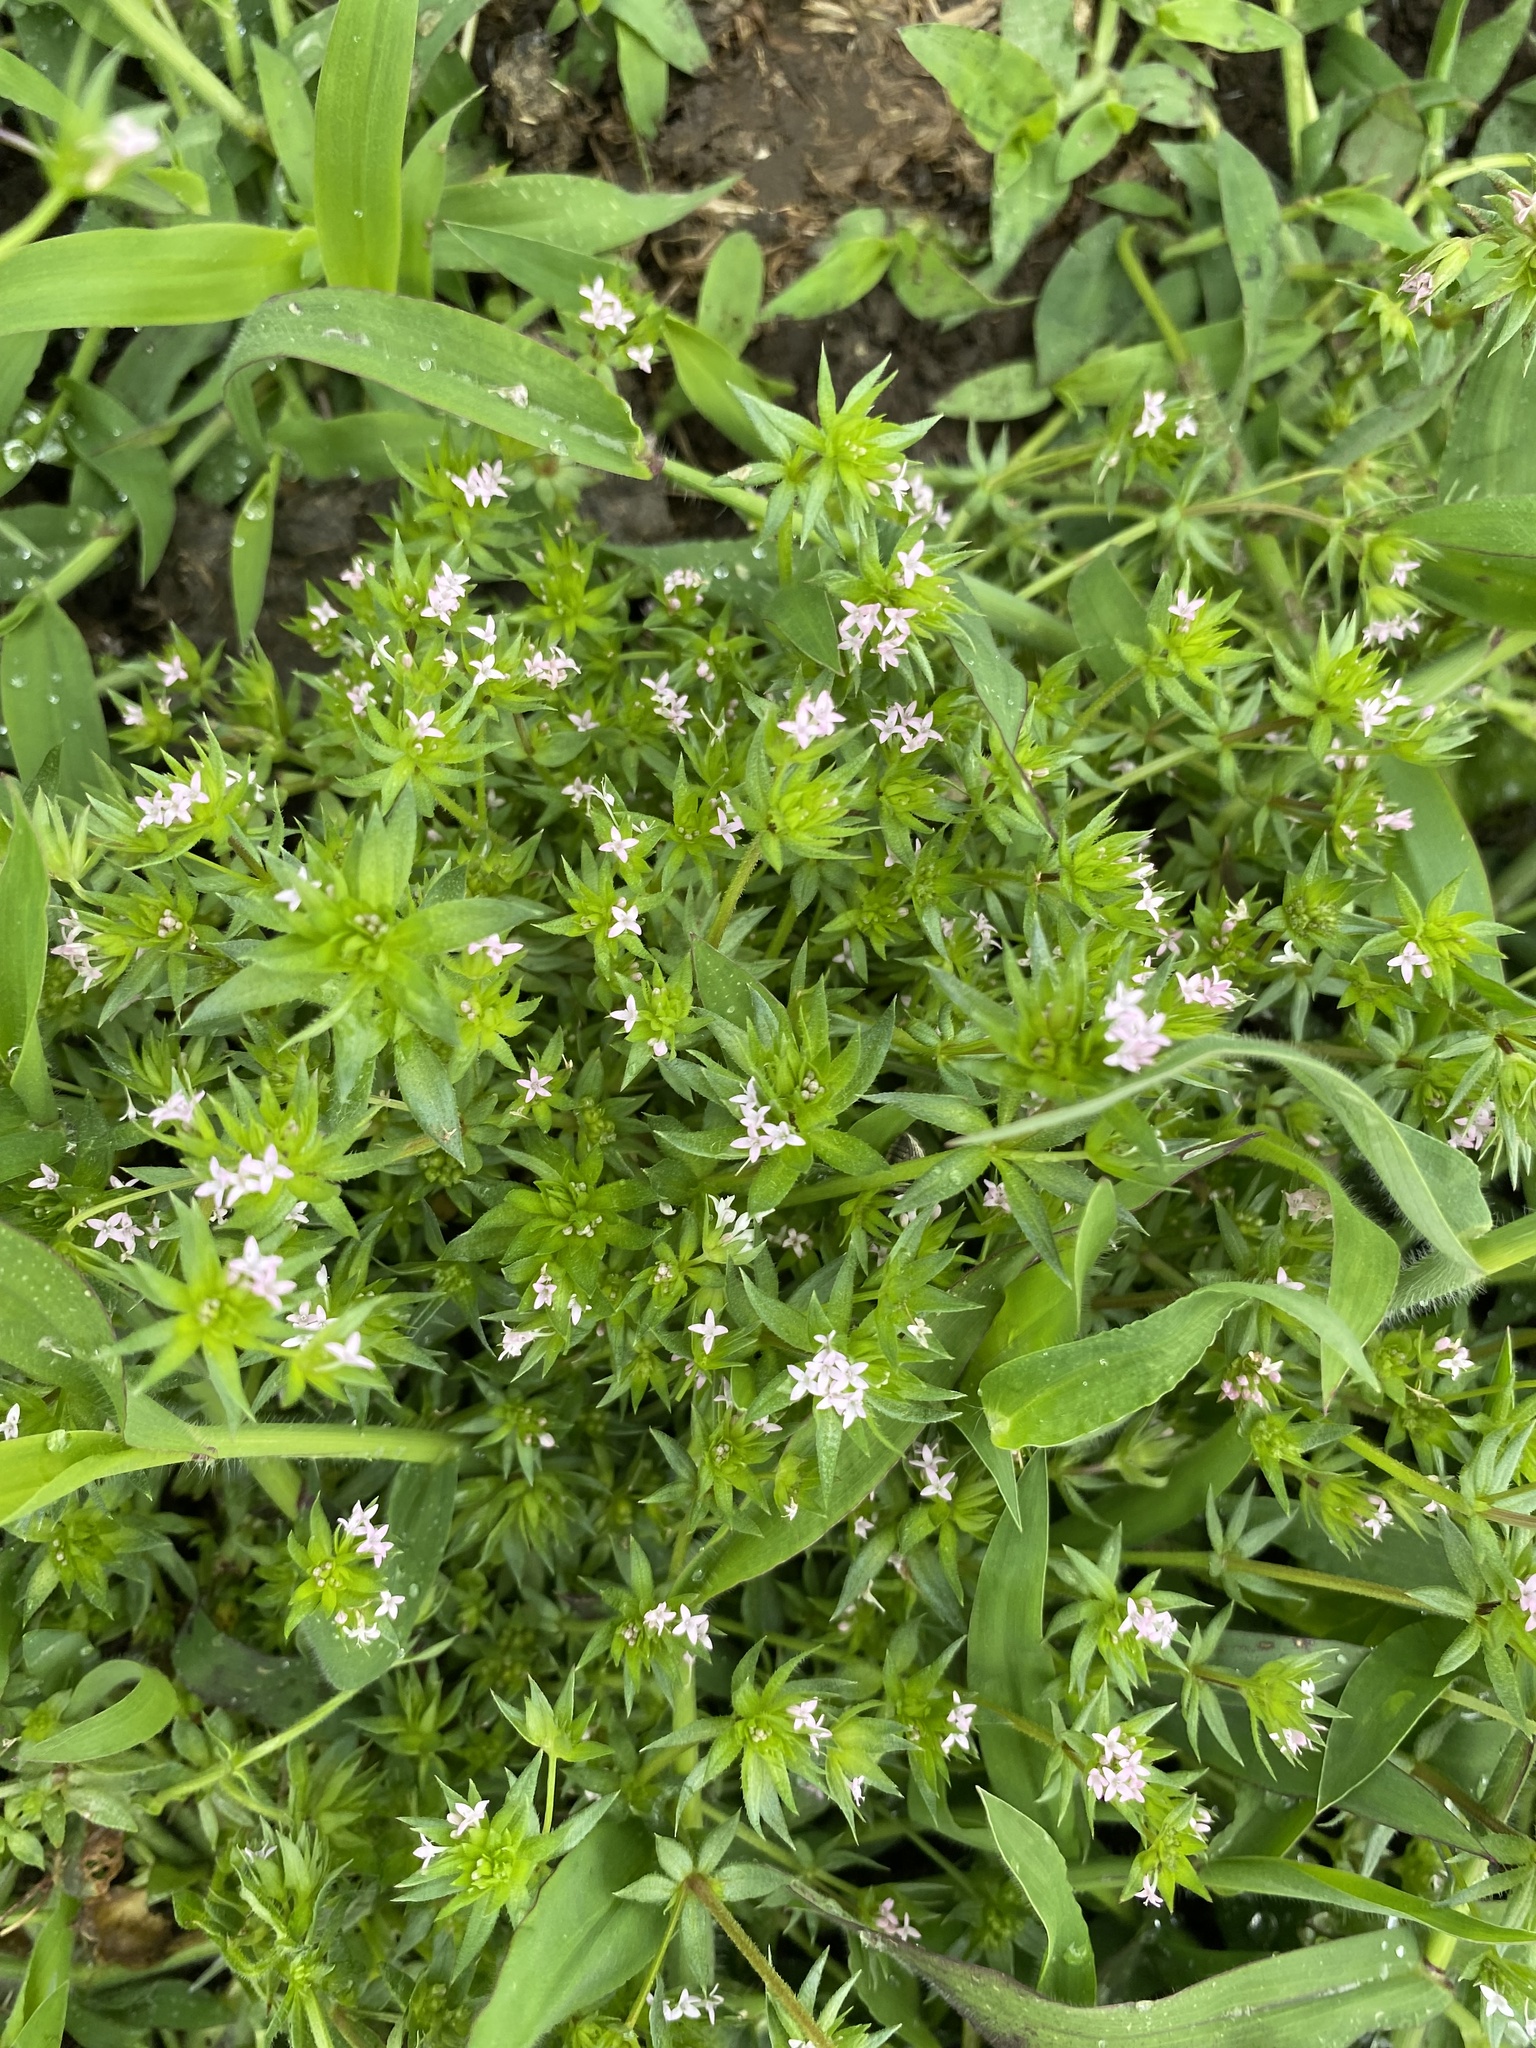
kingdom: Plantae
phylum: Tracheophyta
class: Magnoliopsida
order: Gentianales
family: Rubiaceae
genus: Sherardia
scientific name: Sherardia arvensis
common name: Field madder
